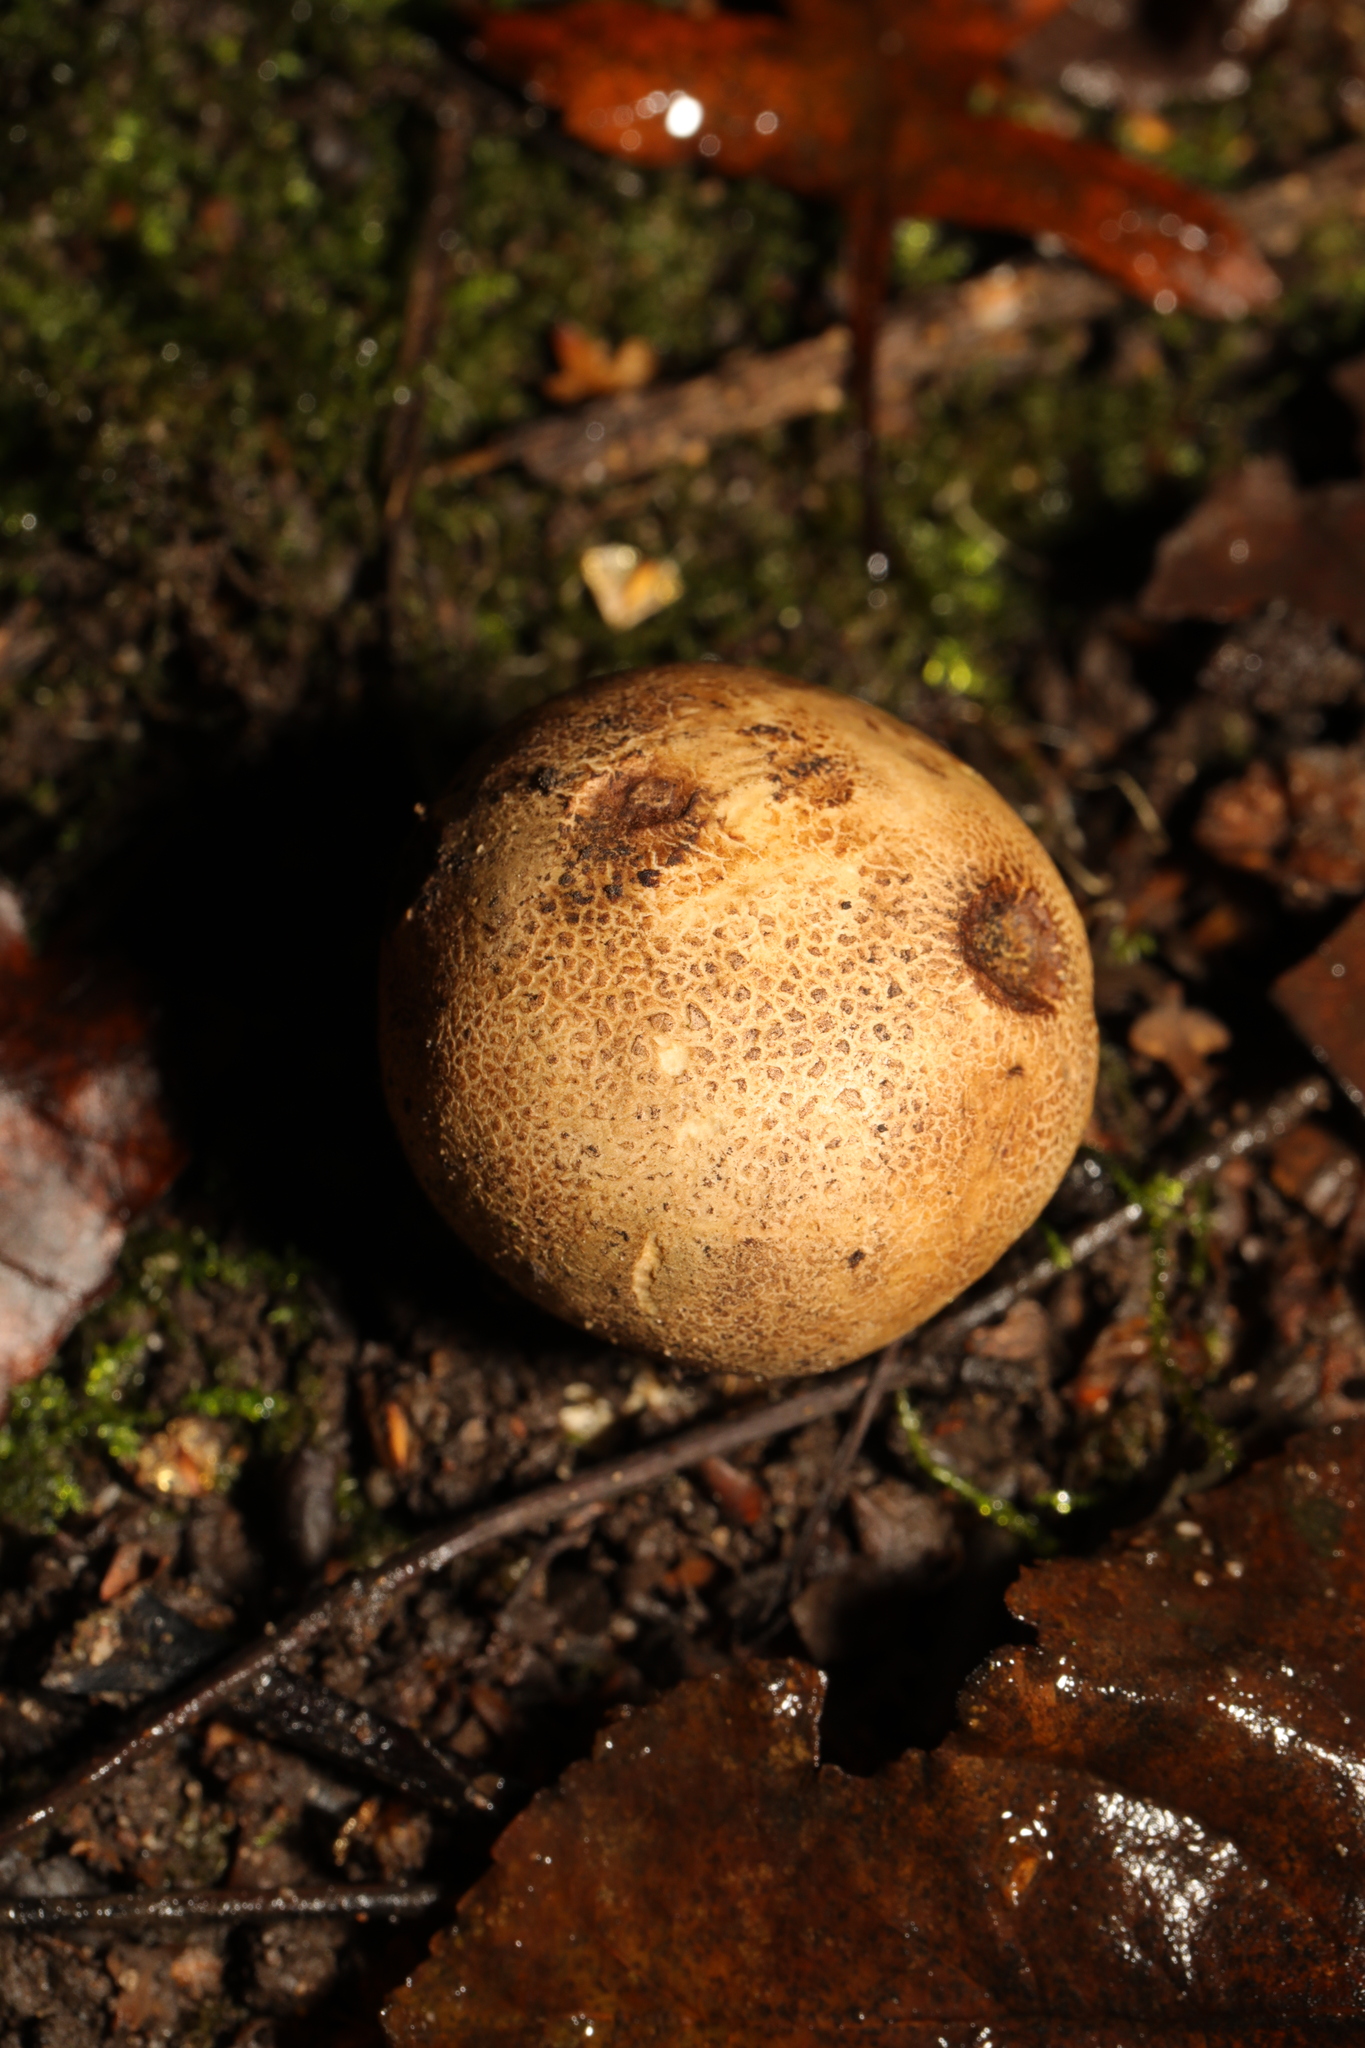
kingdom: Fungi
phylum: Basidiomycota
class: Agaricomycetes
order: Boletales
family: Sclerodermataceae
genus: Scleroderma
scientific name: Scleroderma verrucosum
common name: Scaly earthball
